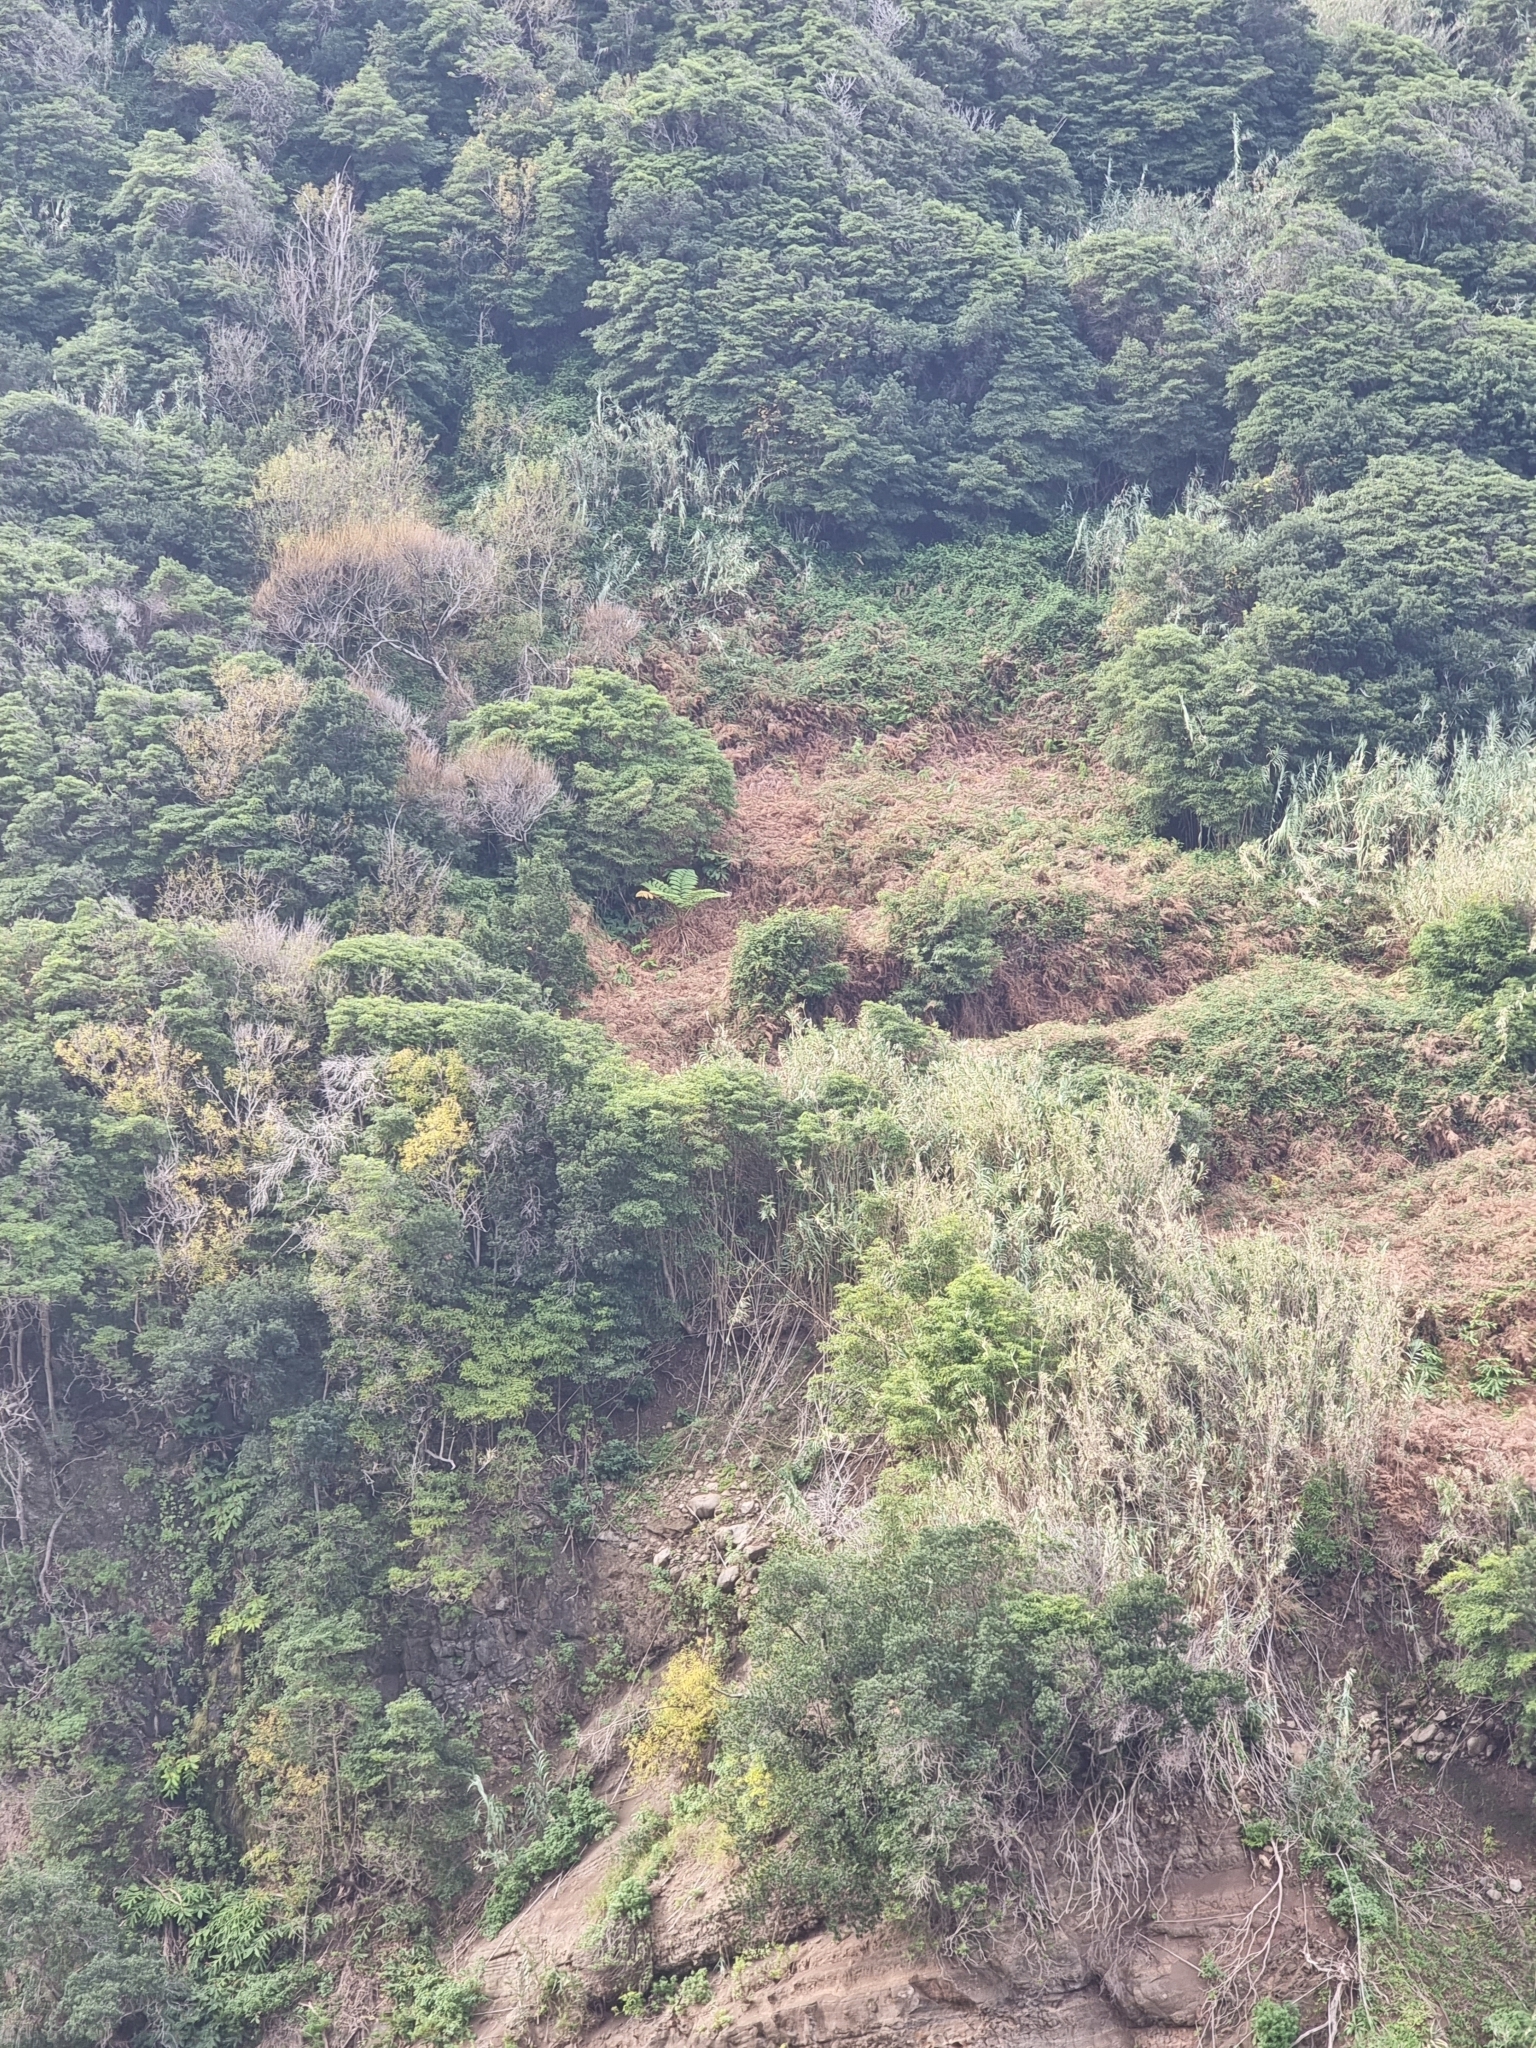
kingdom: Plantae
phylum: Tracheophyta
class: Polypodiopsida
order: Cyatheales
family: Cyatheaceae
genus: Sphaeropteris
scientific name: Sphaeropteris cooperi
